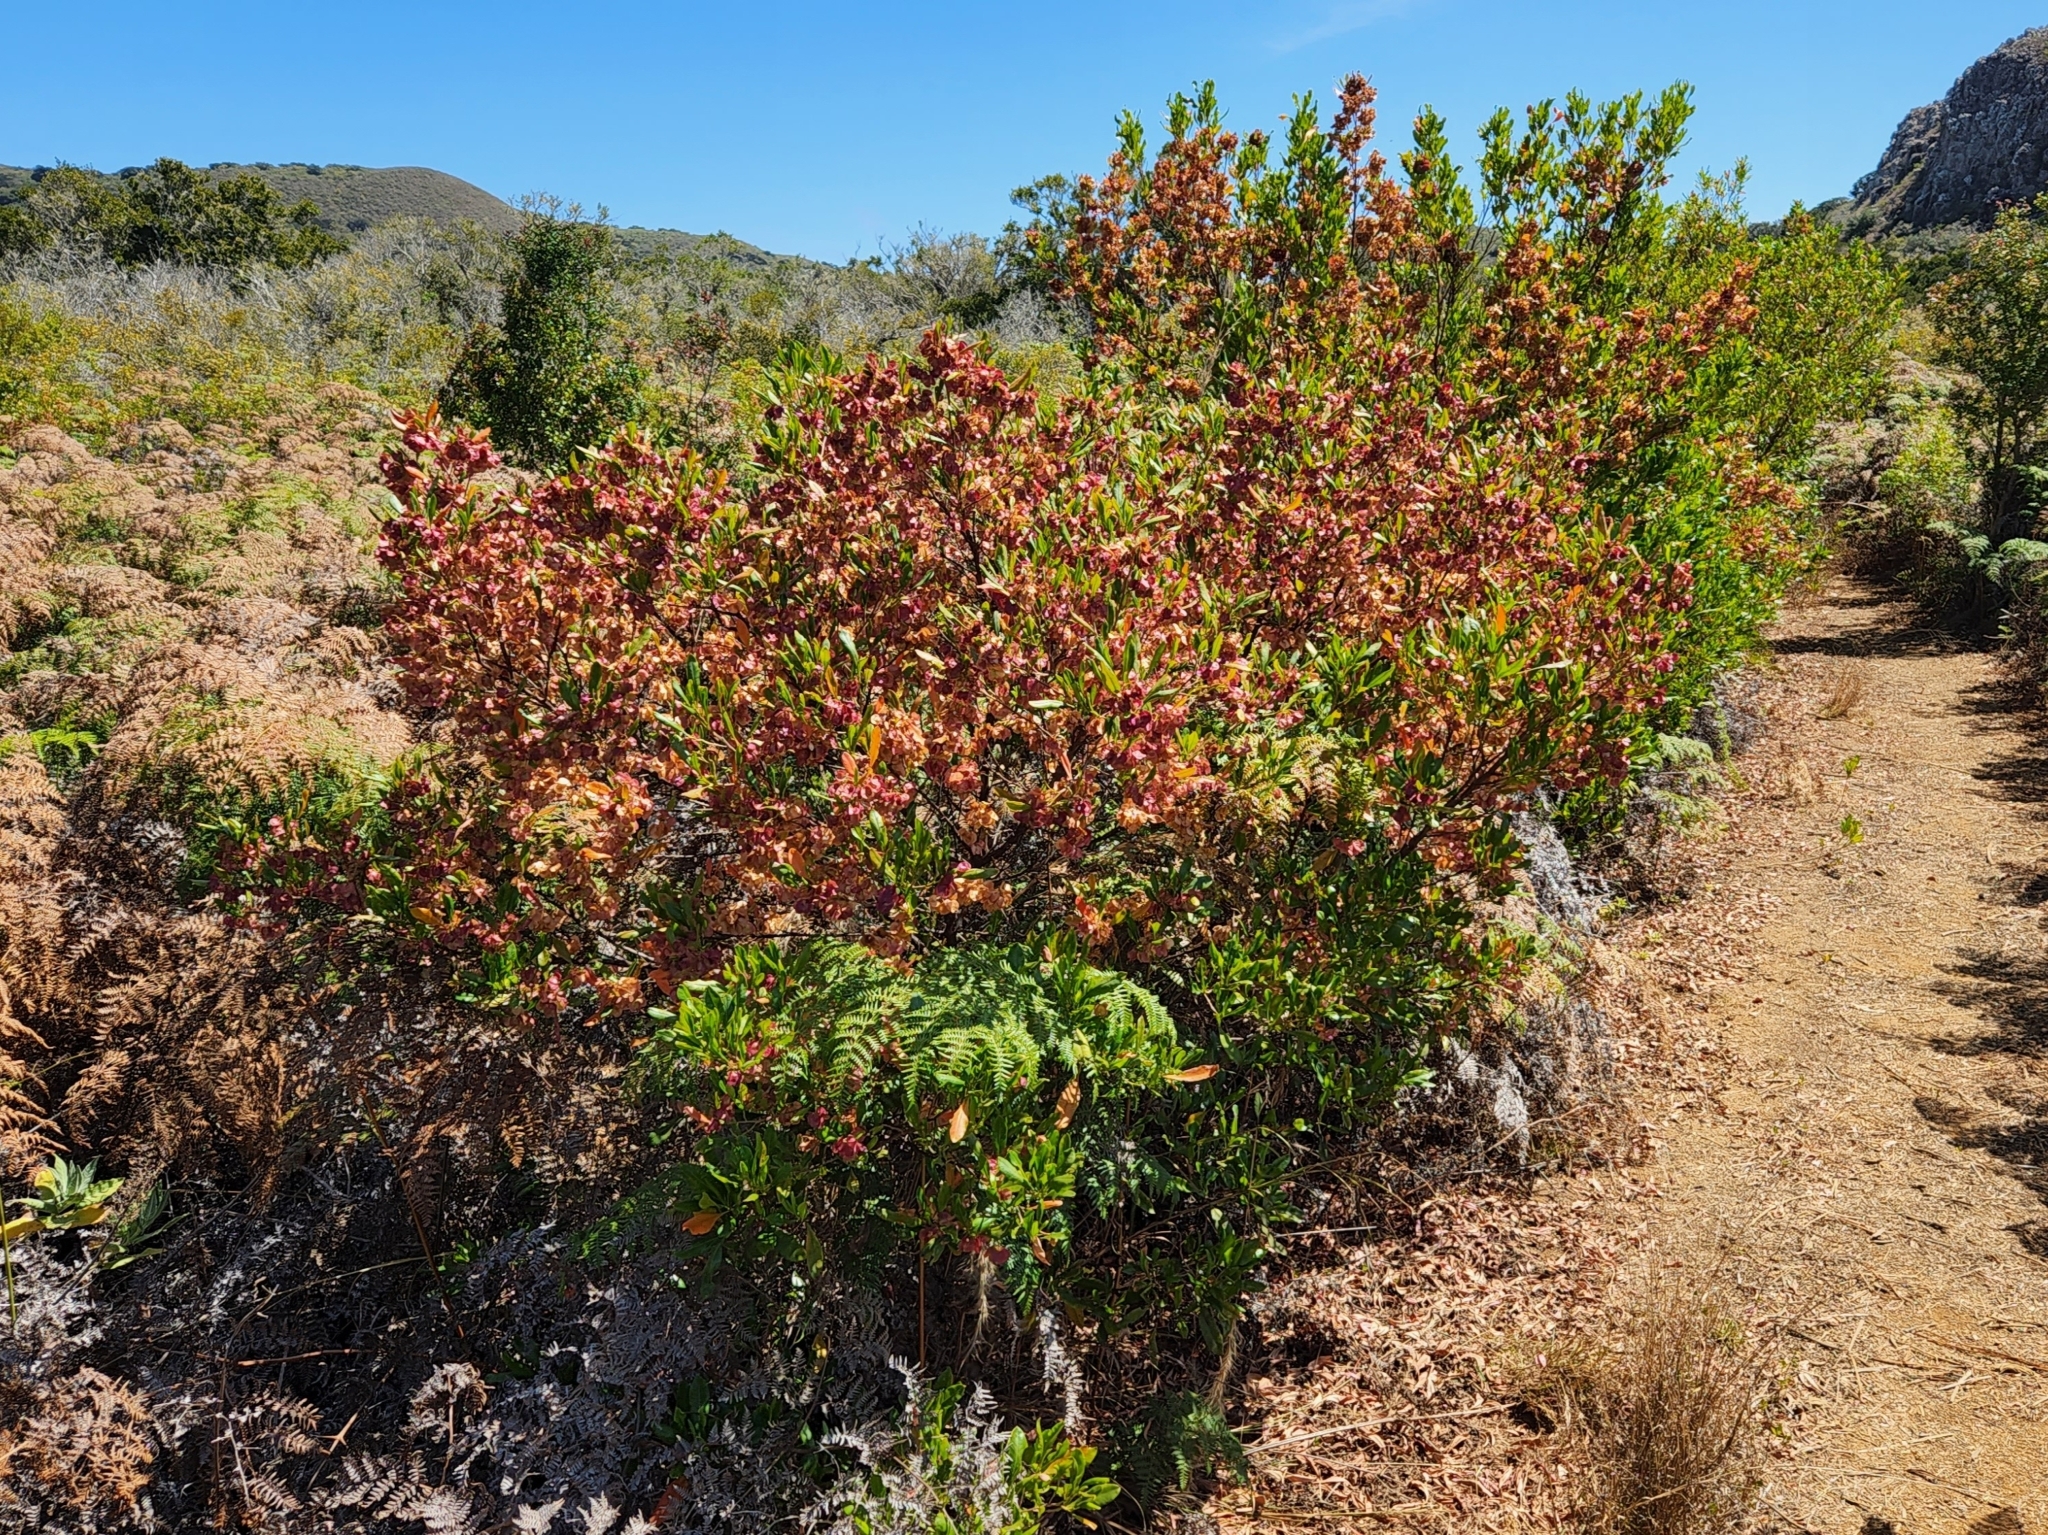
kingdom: Plantae
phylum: Tracheophyta
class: Magnoliopsida
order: Sapindales
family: Sapindaceae
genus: Dodonaea
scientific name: Dodonaea viscosa
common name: Hopbush
